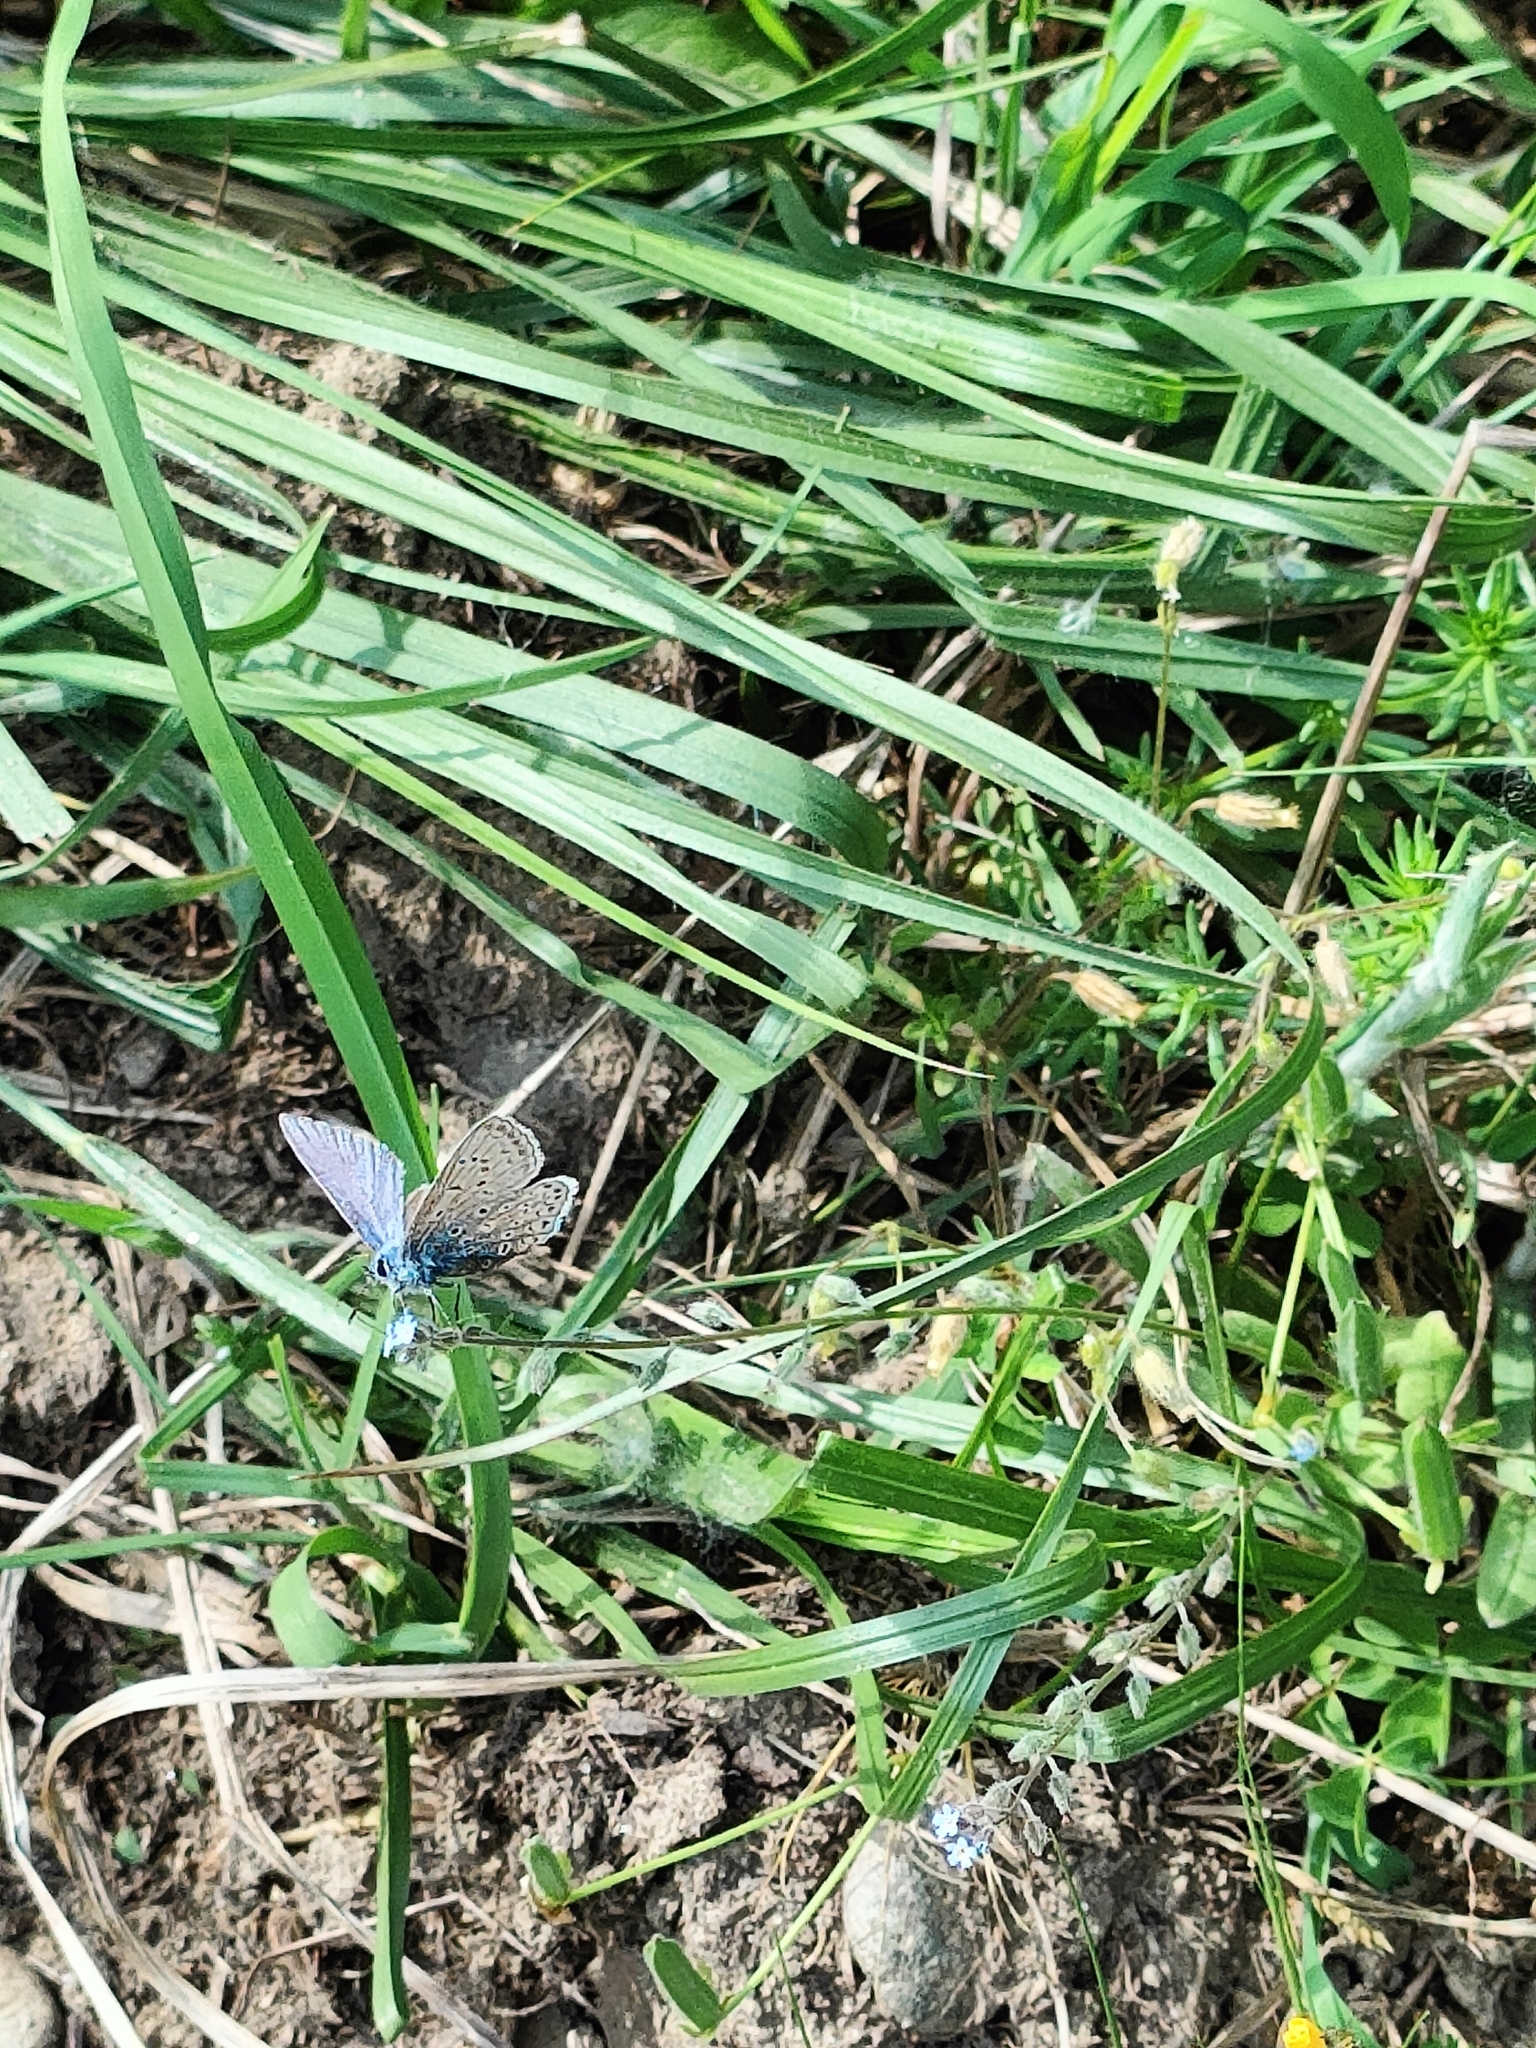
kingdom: Animalia
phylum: Arthropoda
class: Insecta
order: Lepidoptera
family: Lycaenidae
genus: Polyommatus
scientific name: Polyommatus icarus
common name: Common blue
